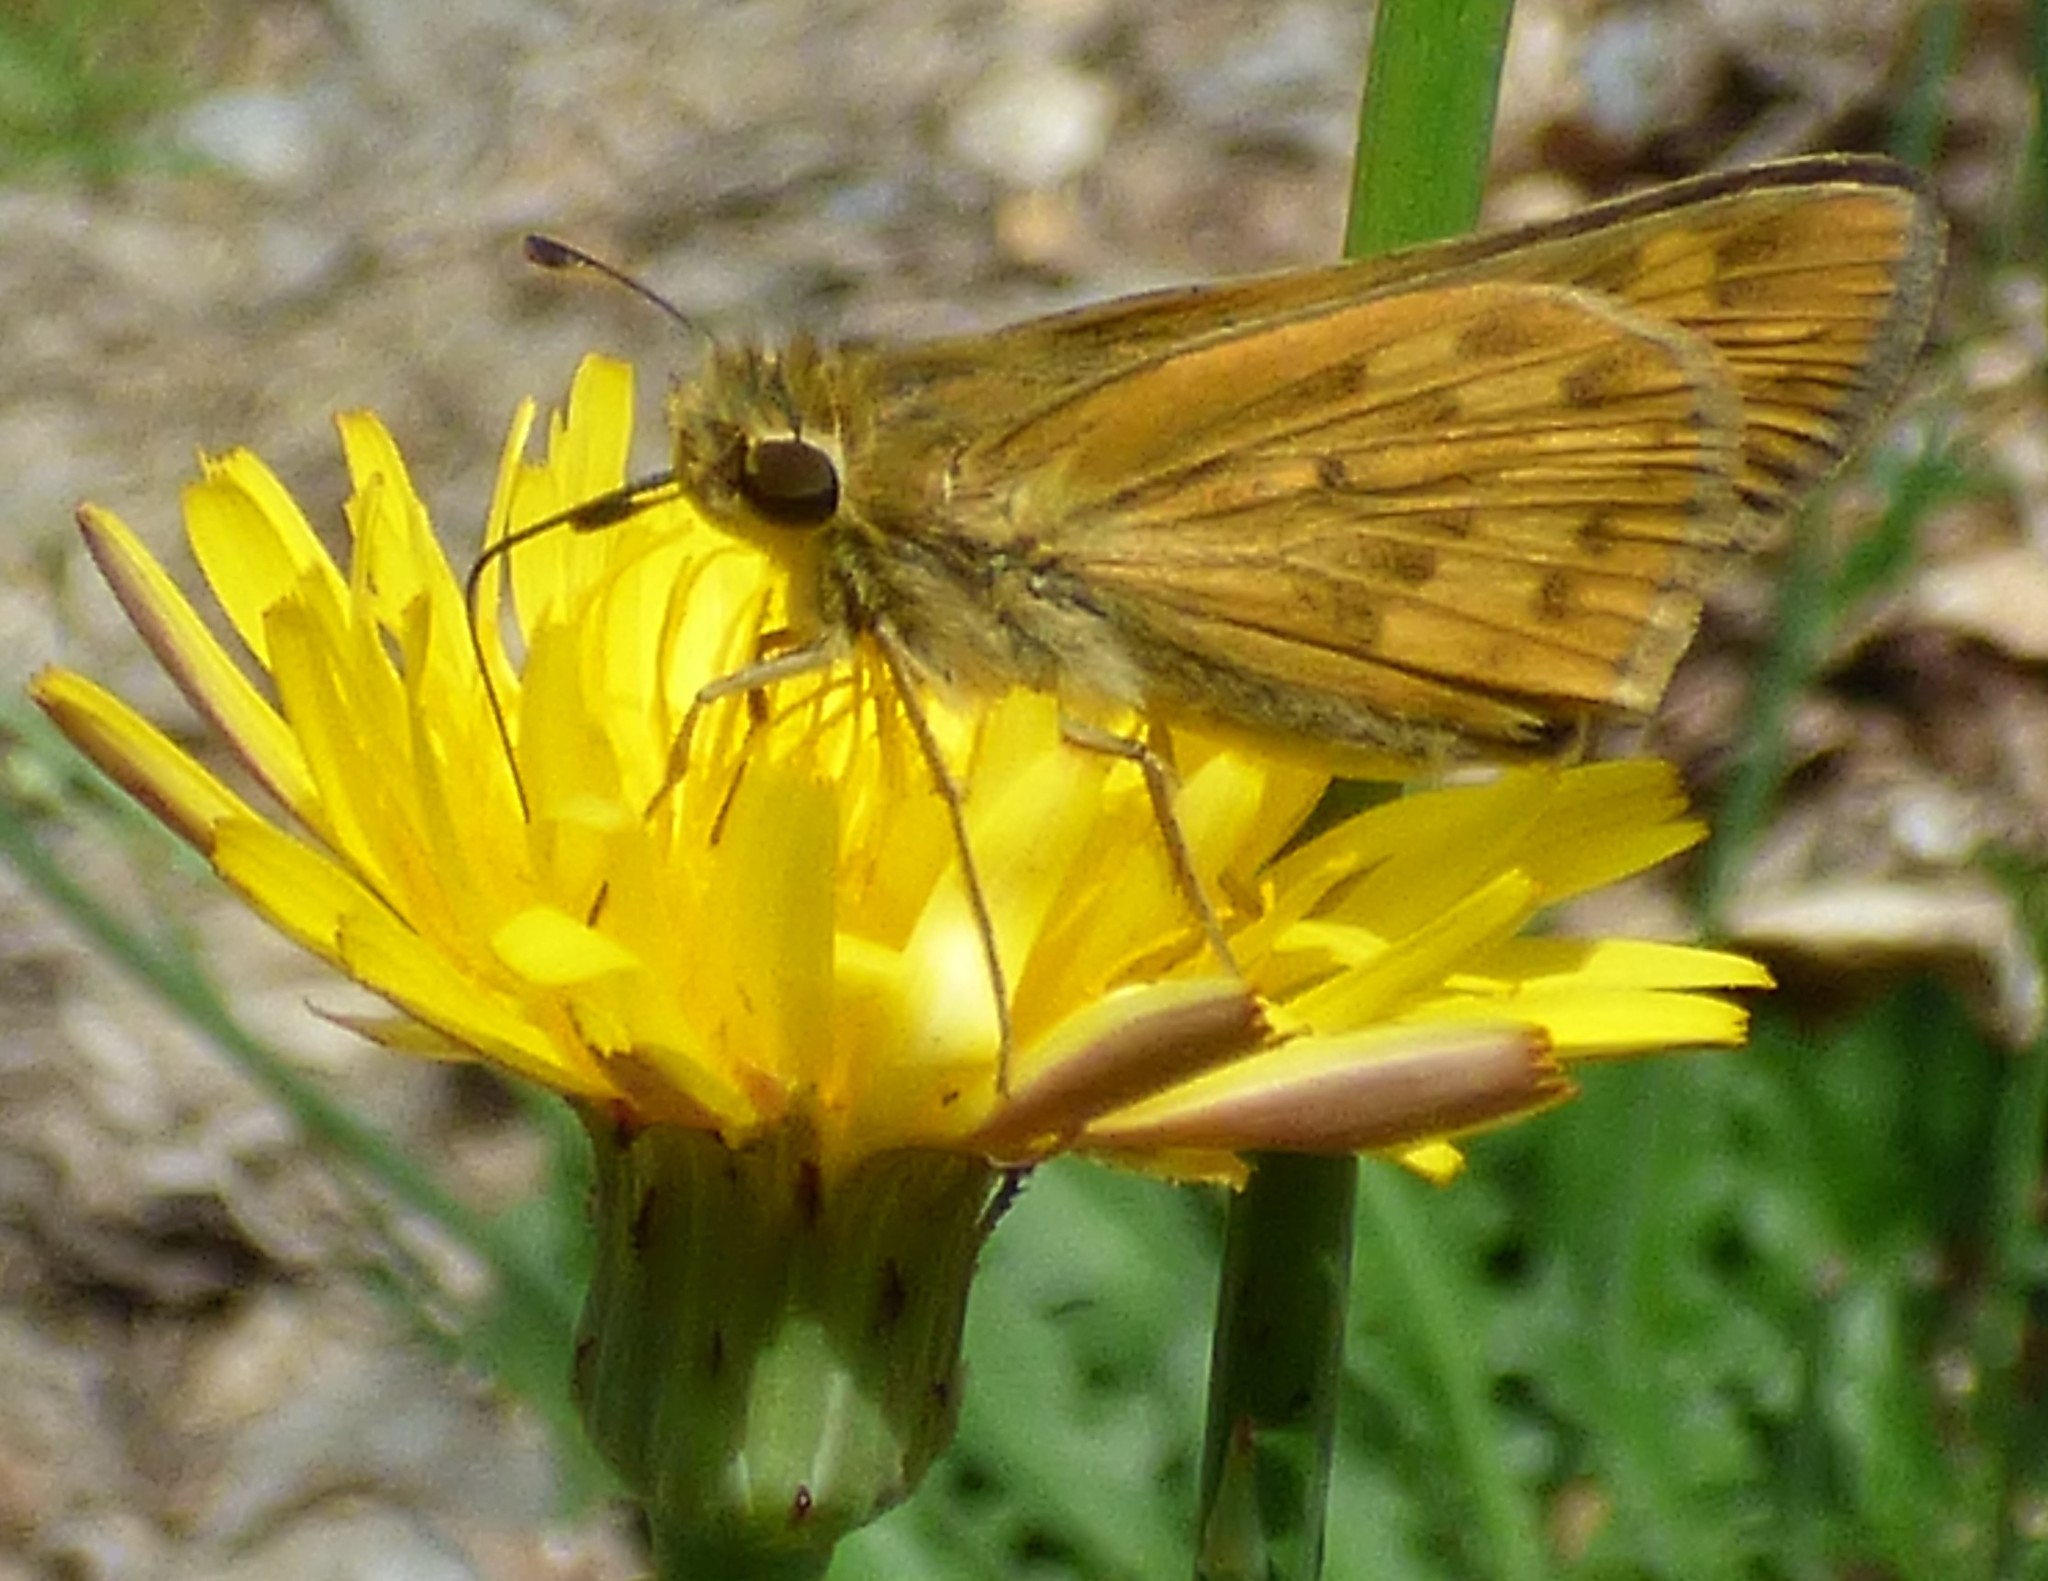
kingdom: Animalia
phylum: Arthropoda
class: Insecta
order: Lepidoptera
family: Hesperiidae
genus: Hylephila
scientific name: Hylephila phyleus
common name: Fiery skipper
